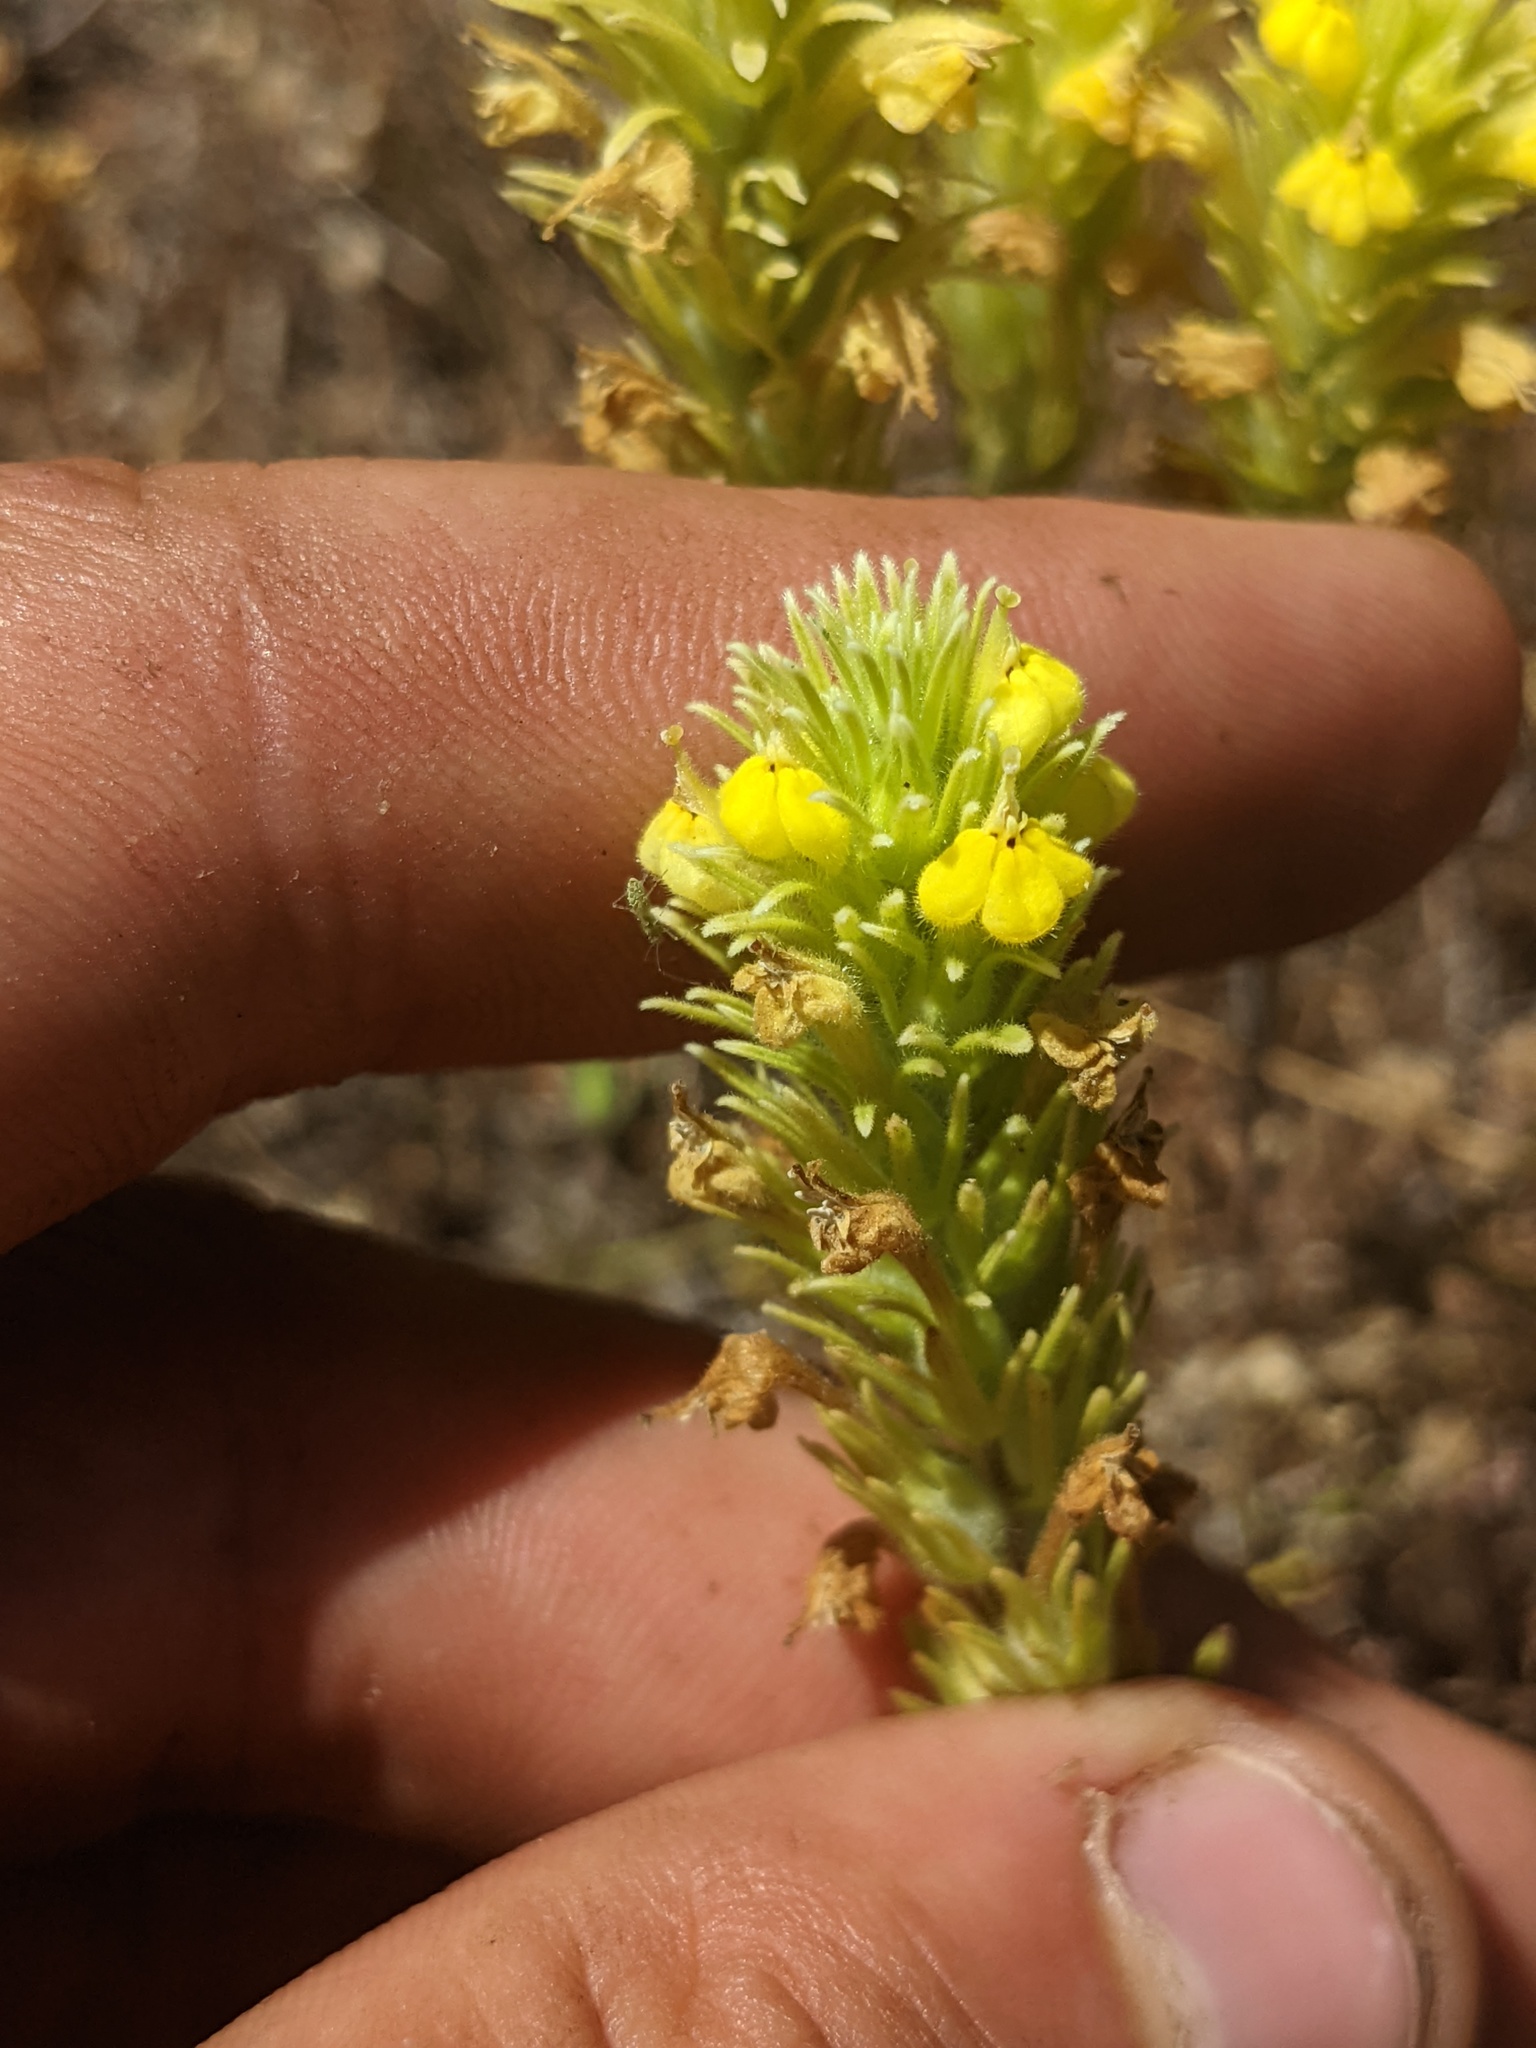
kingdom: Plantae
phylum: Tracheophyta
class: Magnoliopsida
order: Lamiales
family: Orobanchaceae
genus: Castilleja
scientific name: Castilleja lacera
